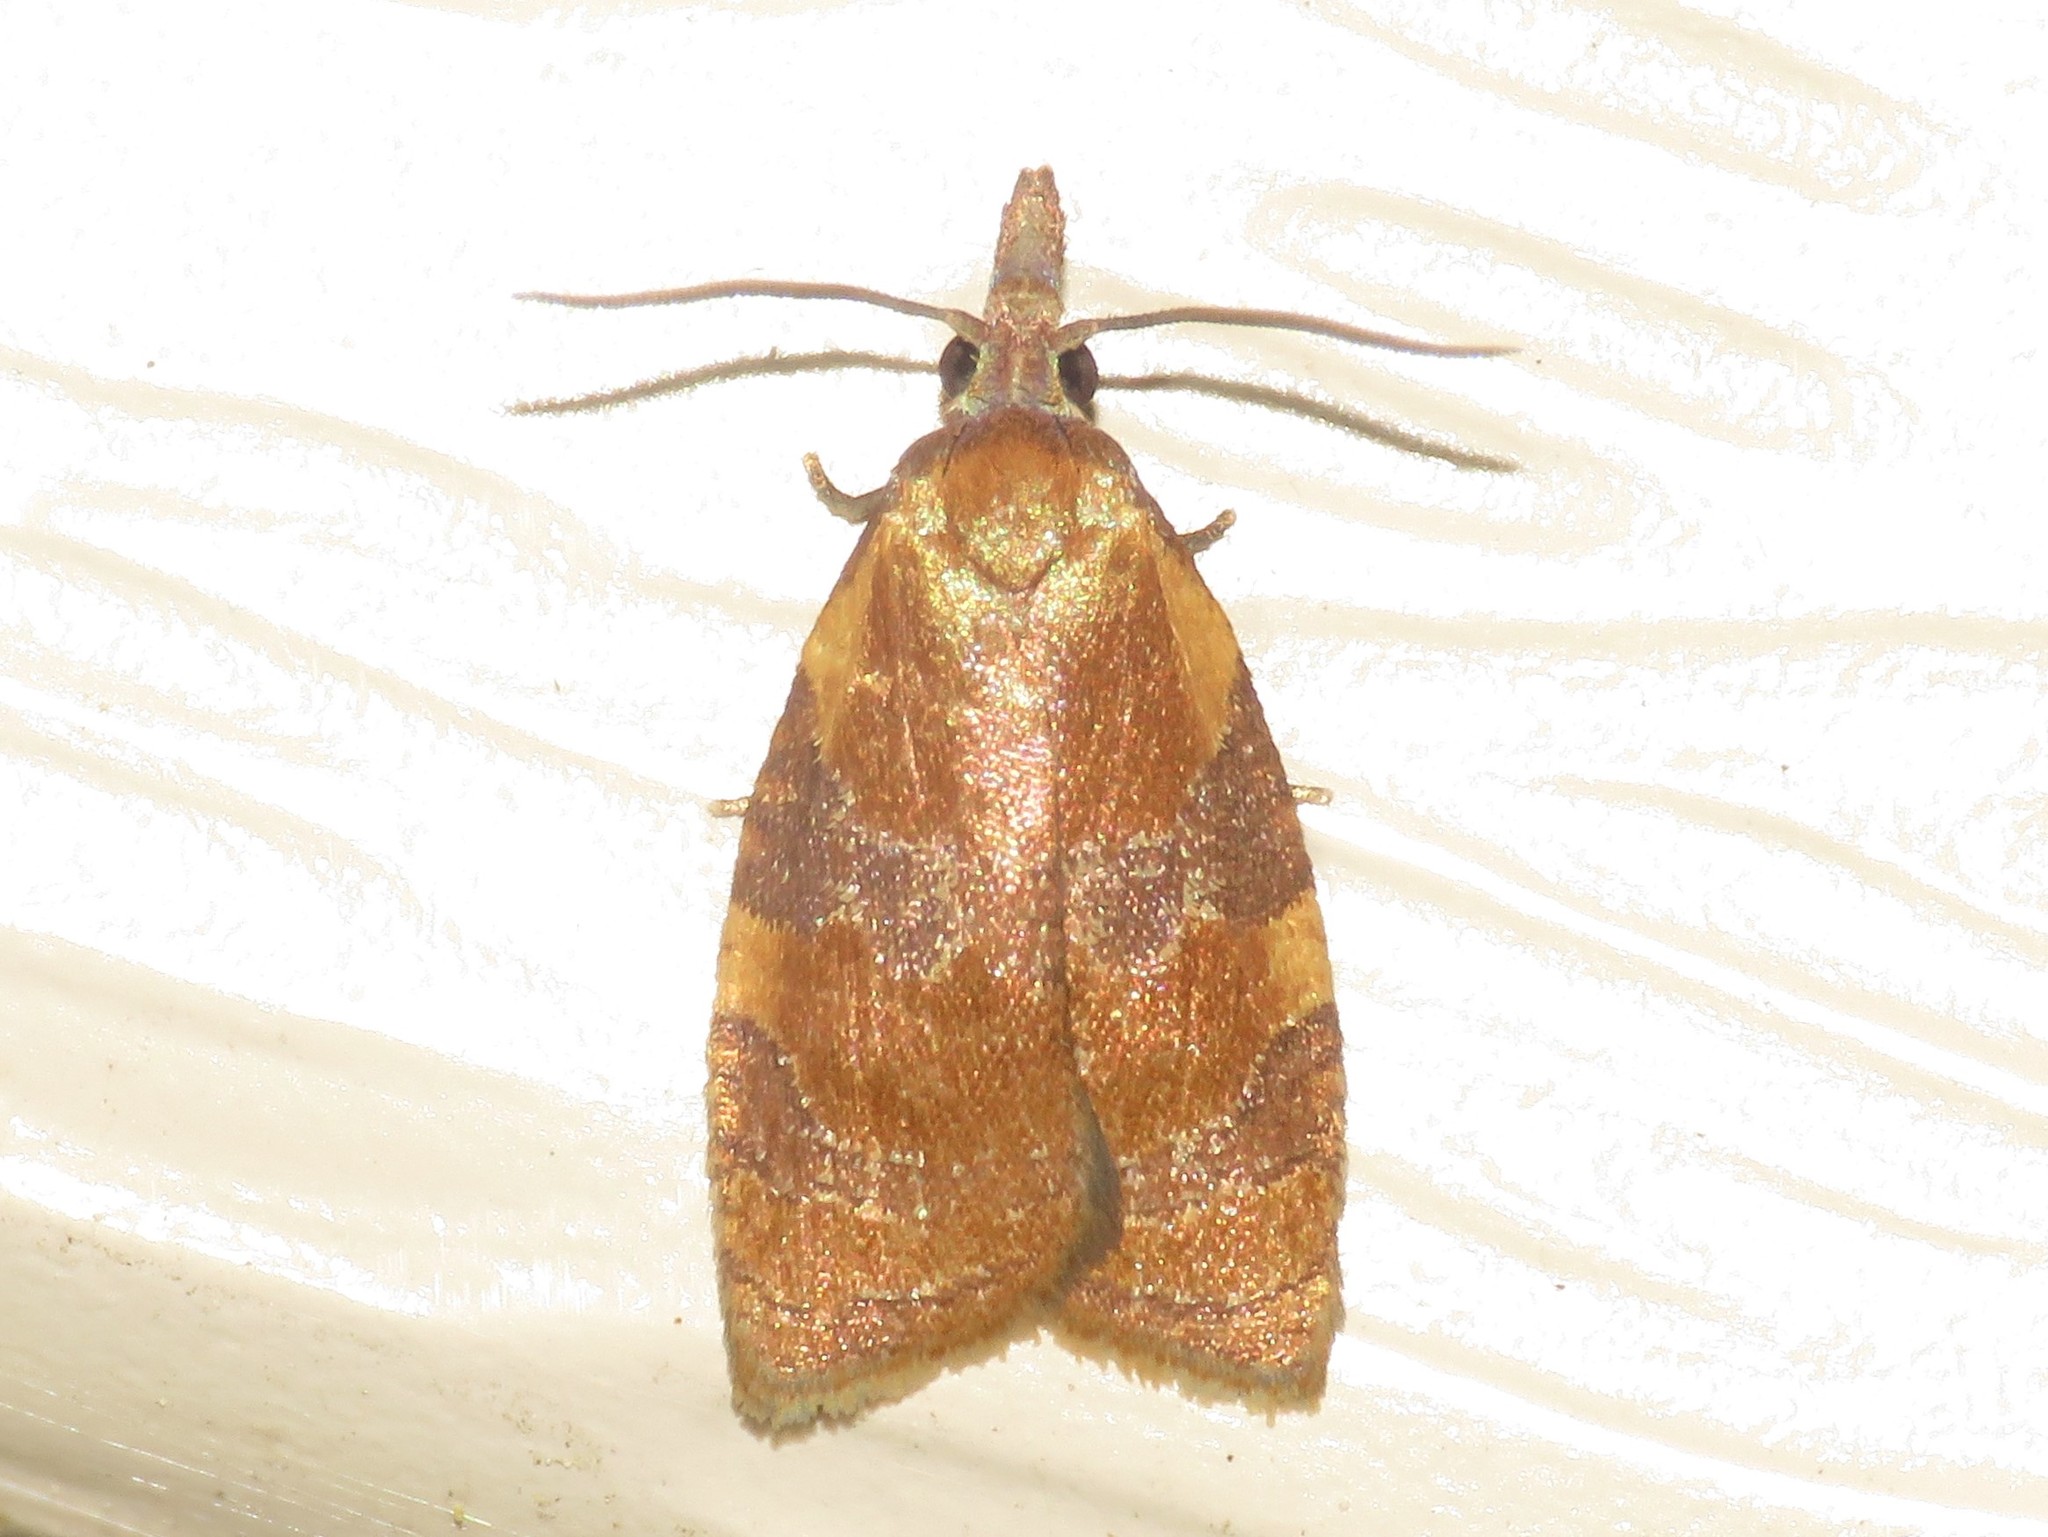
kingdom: Animalia
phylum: Arthropoda
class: Insecta
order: Lepidoptera
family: Tortricidae
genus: Cenopis
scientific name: Cenopis diluticostana
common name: Spring dead-leaf roller moth
